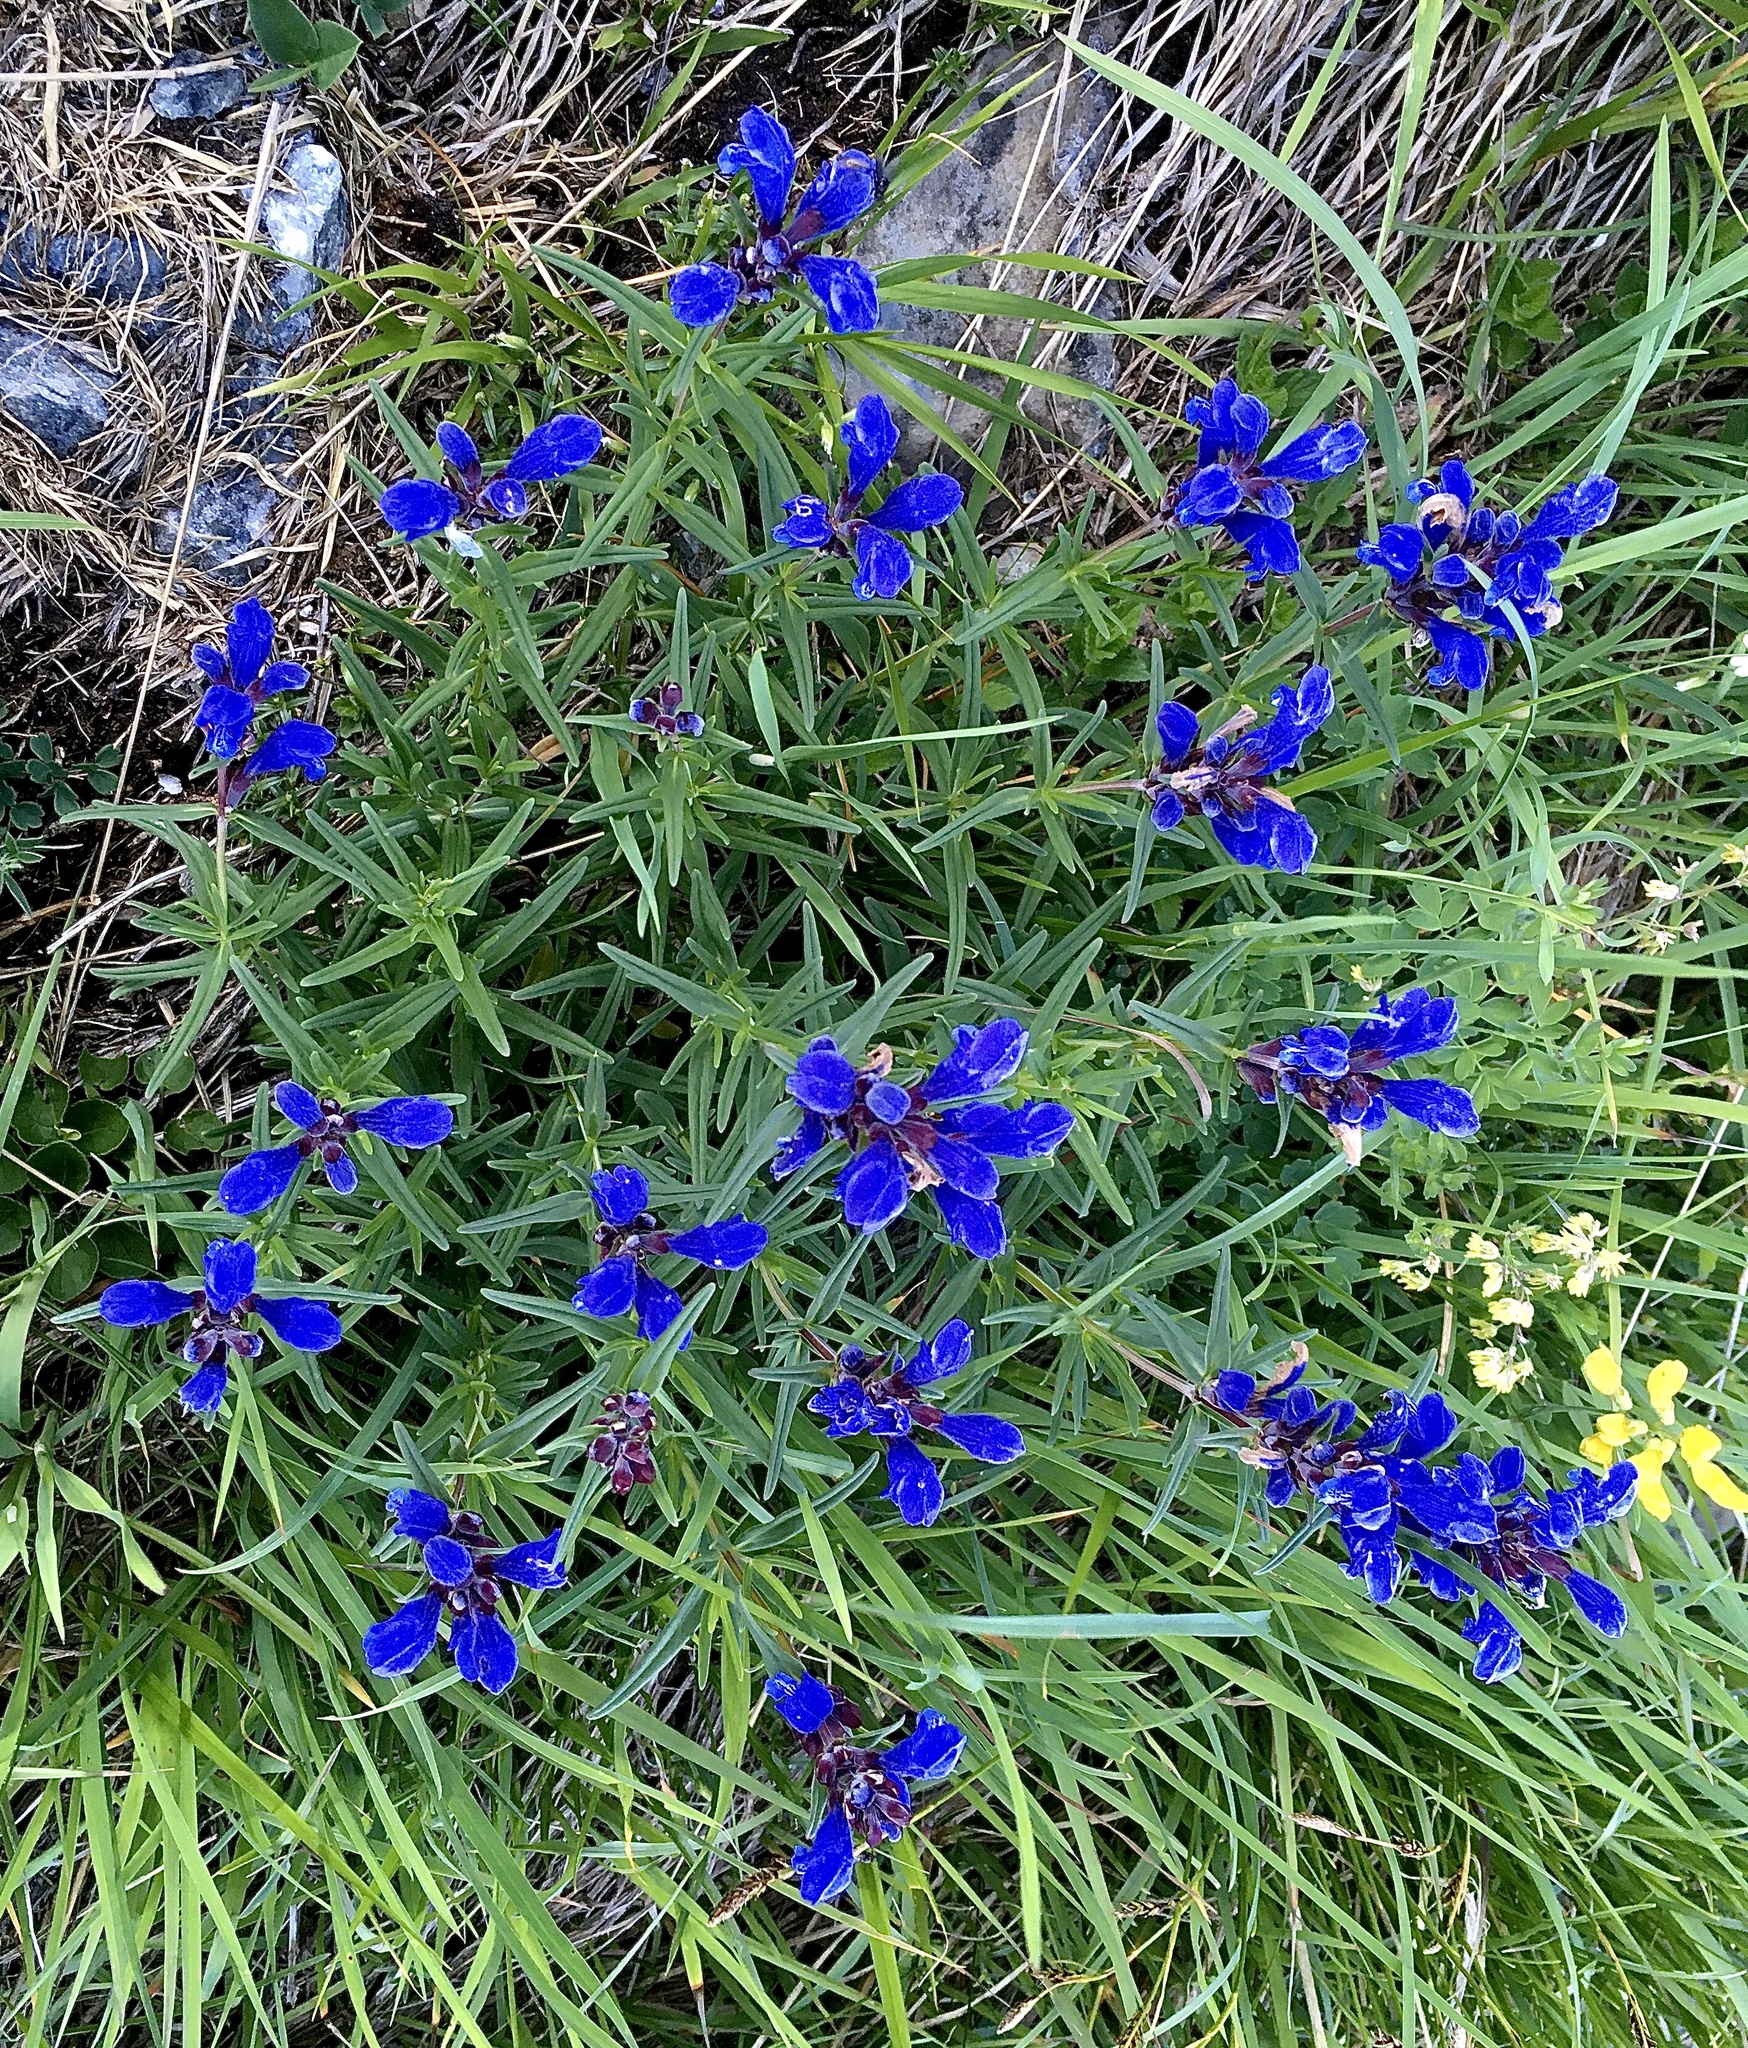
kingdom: Plantae
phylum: Tracheophyta
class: Magnoliopsida
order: Lamiales
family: Lamiaceae
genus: Dracocephalum
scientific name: Dracocephalum ruyschiana
